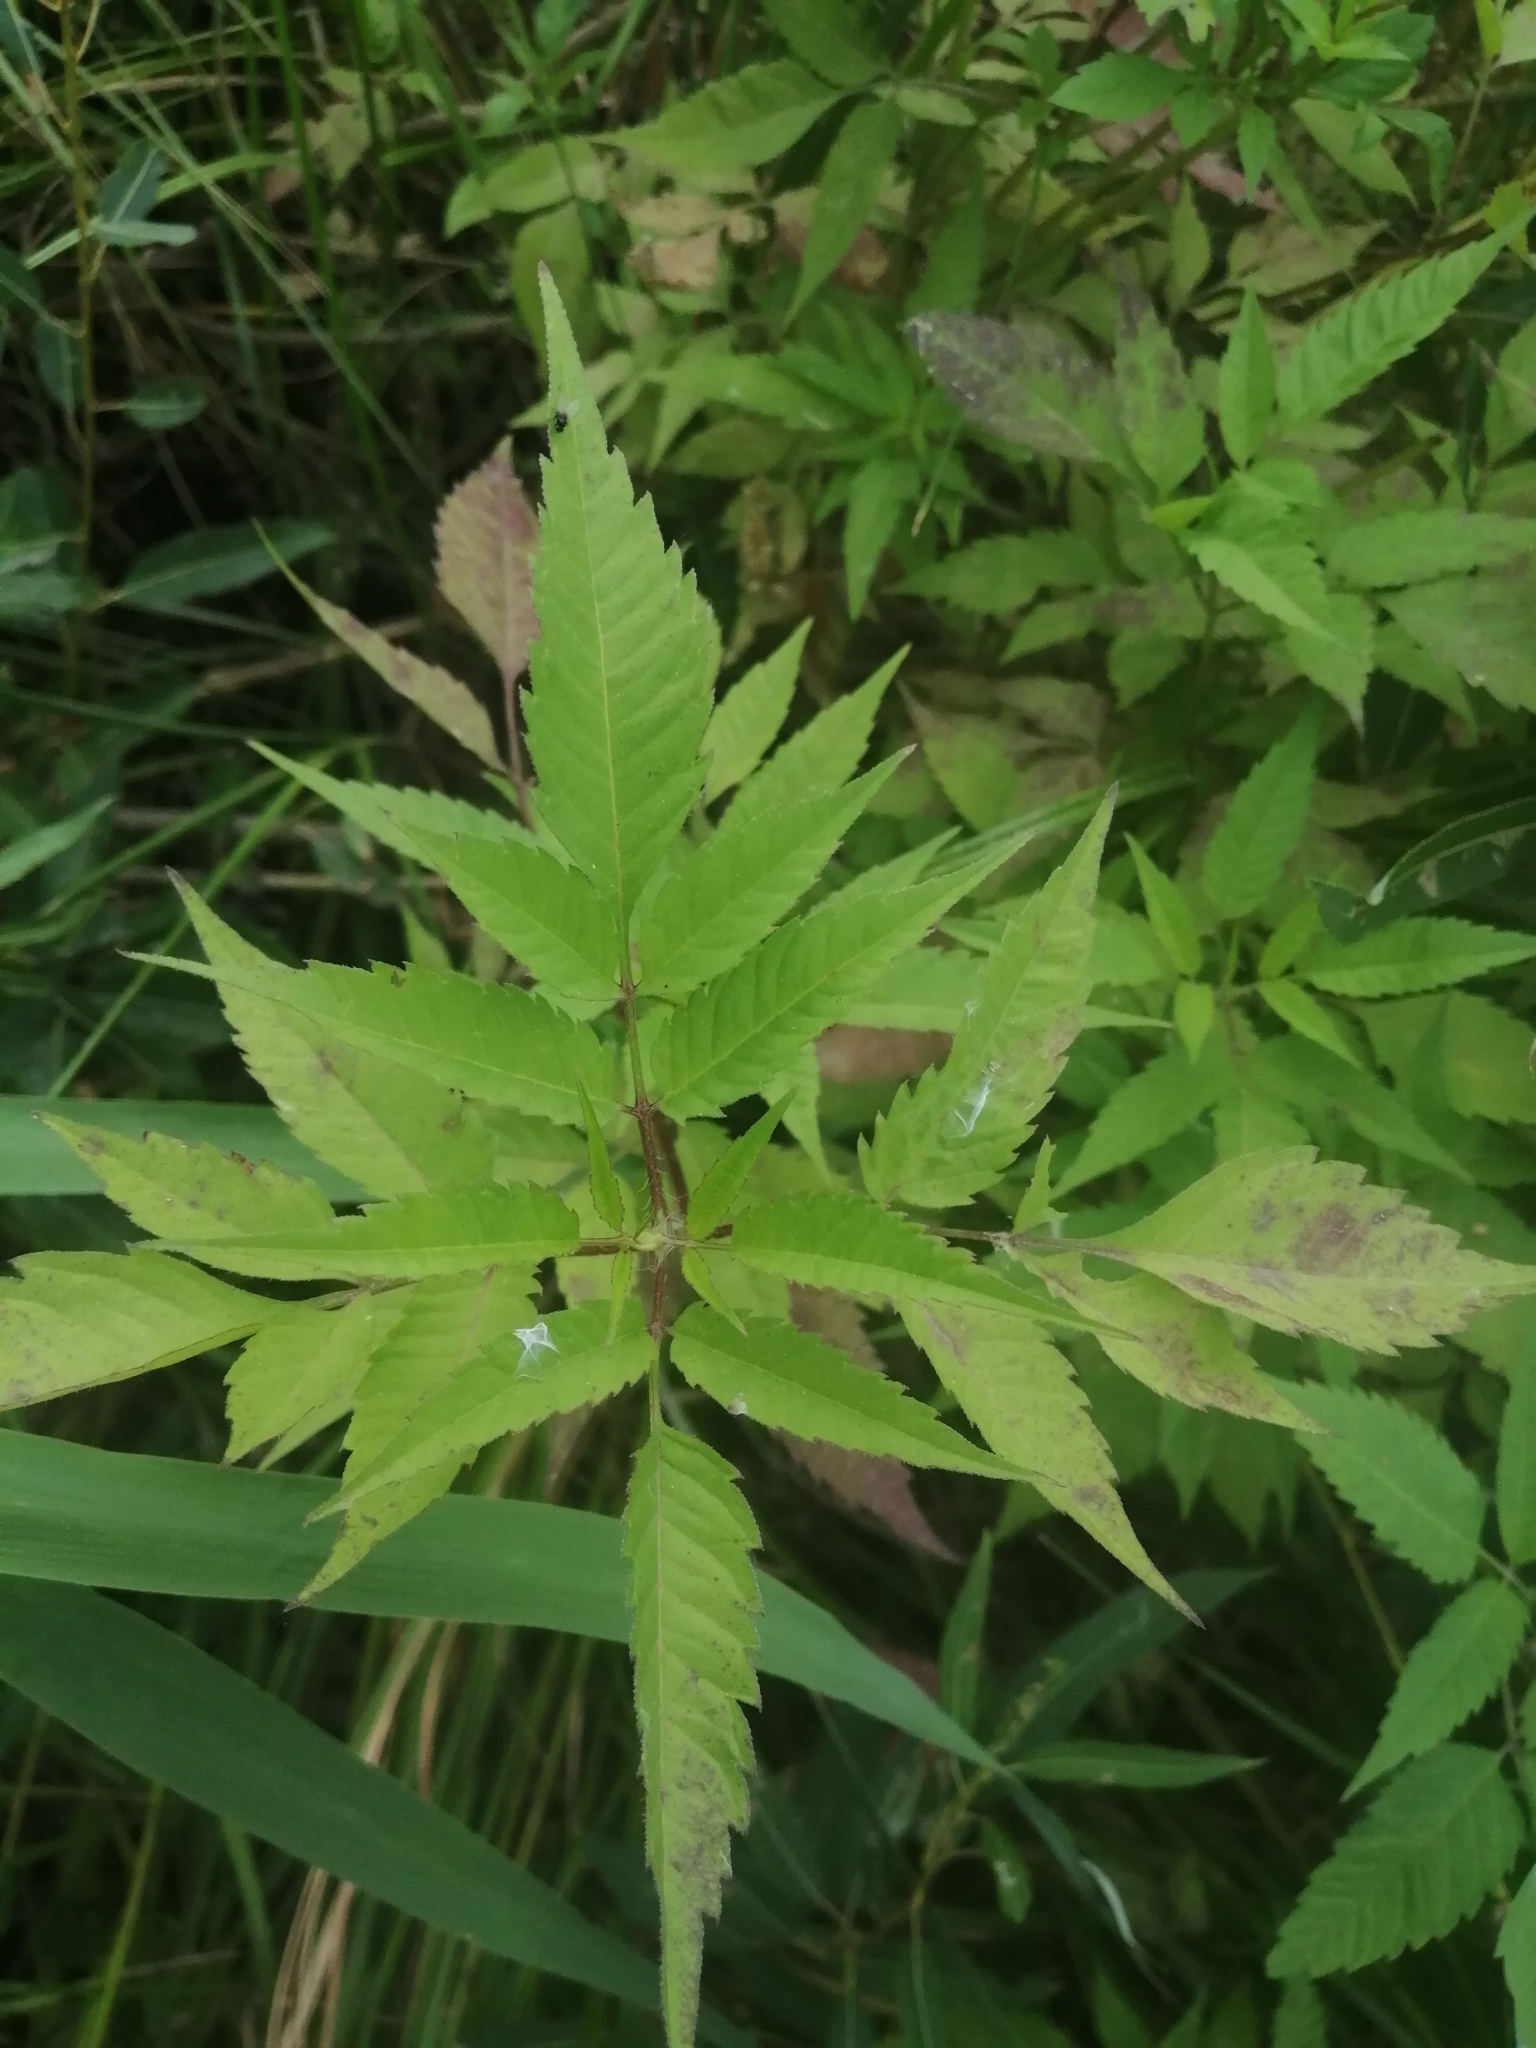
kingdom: Plantae
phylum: Tracheophyta
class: Magnoliopsida
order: Asterales
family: Asteraceae
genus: Bidens
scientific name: Bidens frondosa
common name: Beggarticks
